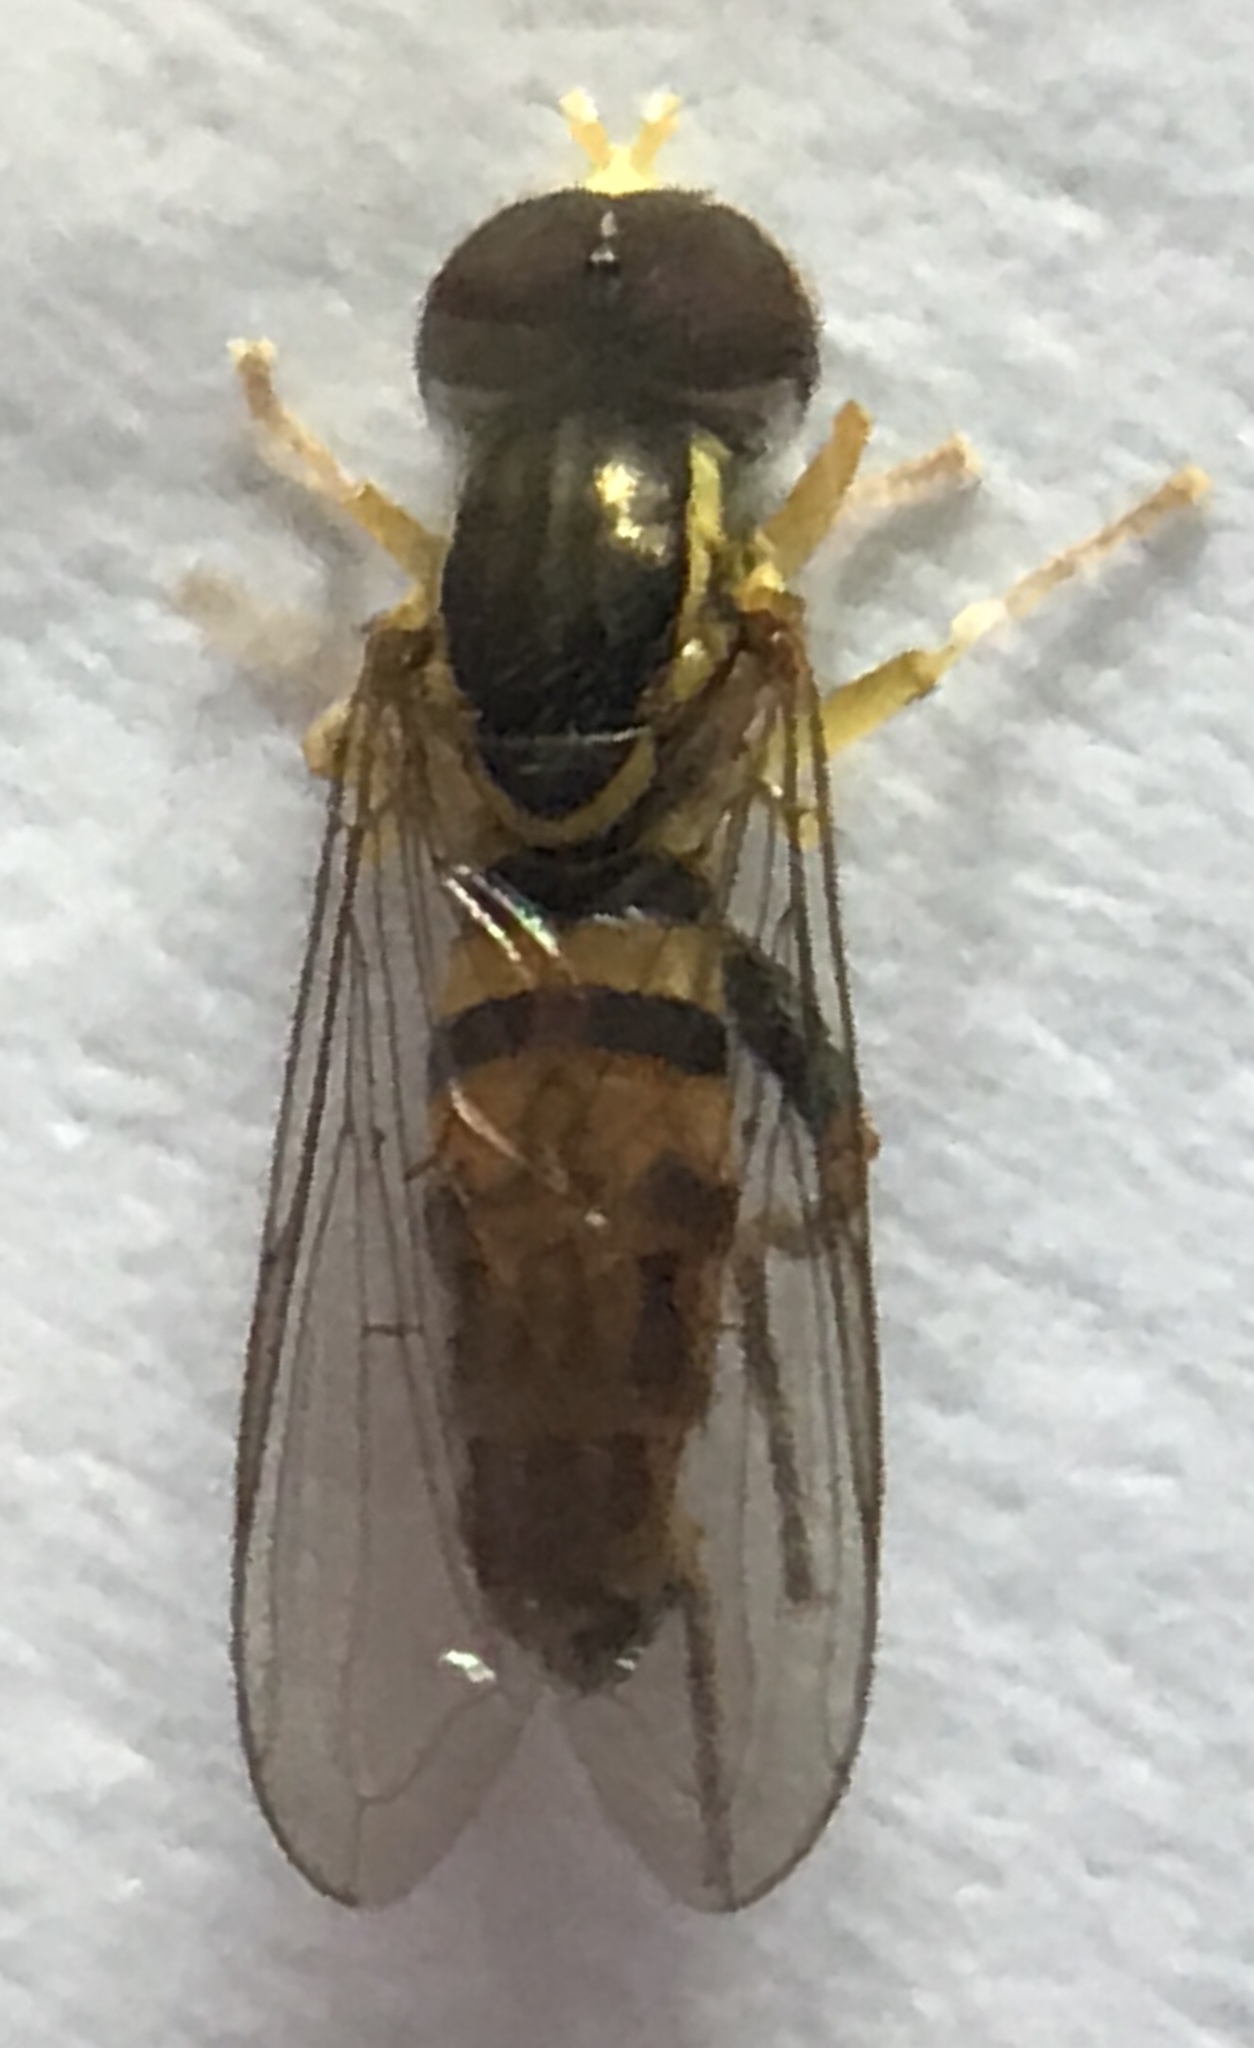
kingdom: Animalia
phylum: Arthropoda
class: Insecta
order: Diptera
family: Syrphidae
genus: Toxomerus
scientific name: Toxomerus geminatus
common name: Eastern calligrapher
